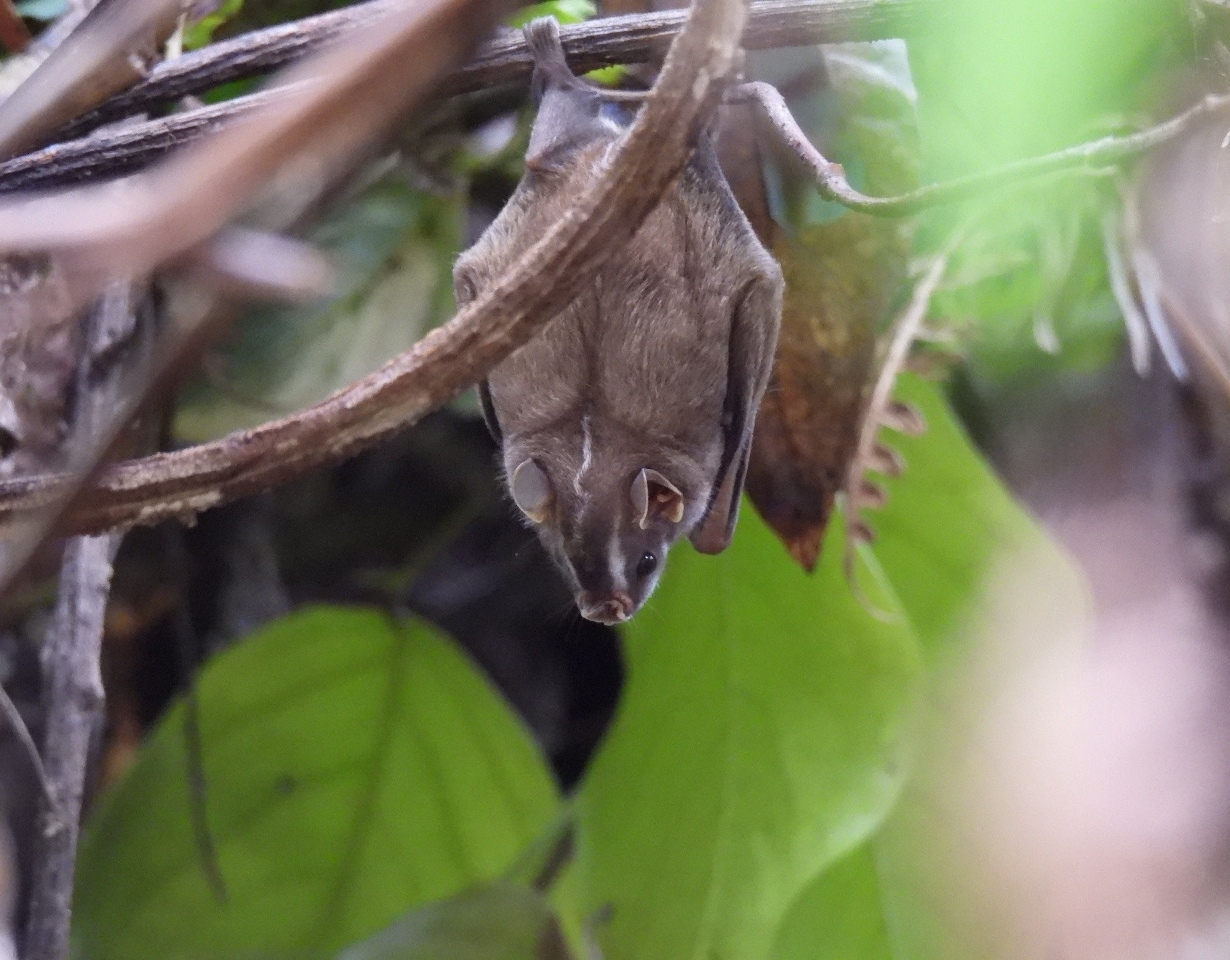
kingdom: Animalia
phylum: Chordata
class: Mammalia
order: Chiroptera
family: Phyllostomidae
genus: Platyrrhinus
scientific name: Platyrrhinus helleri
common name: Heller's broad-nosed bat
